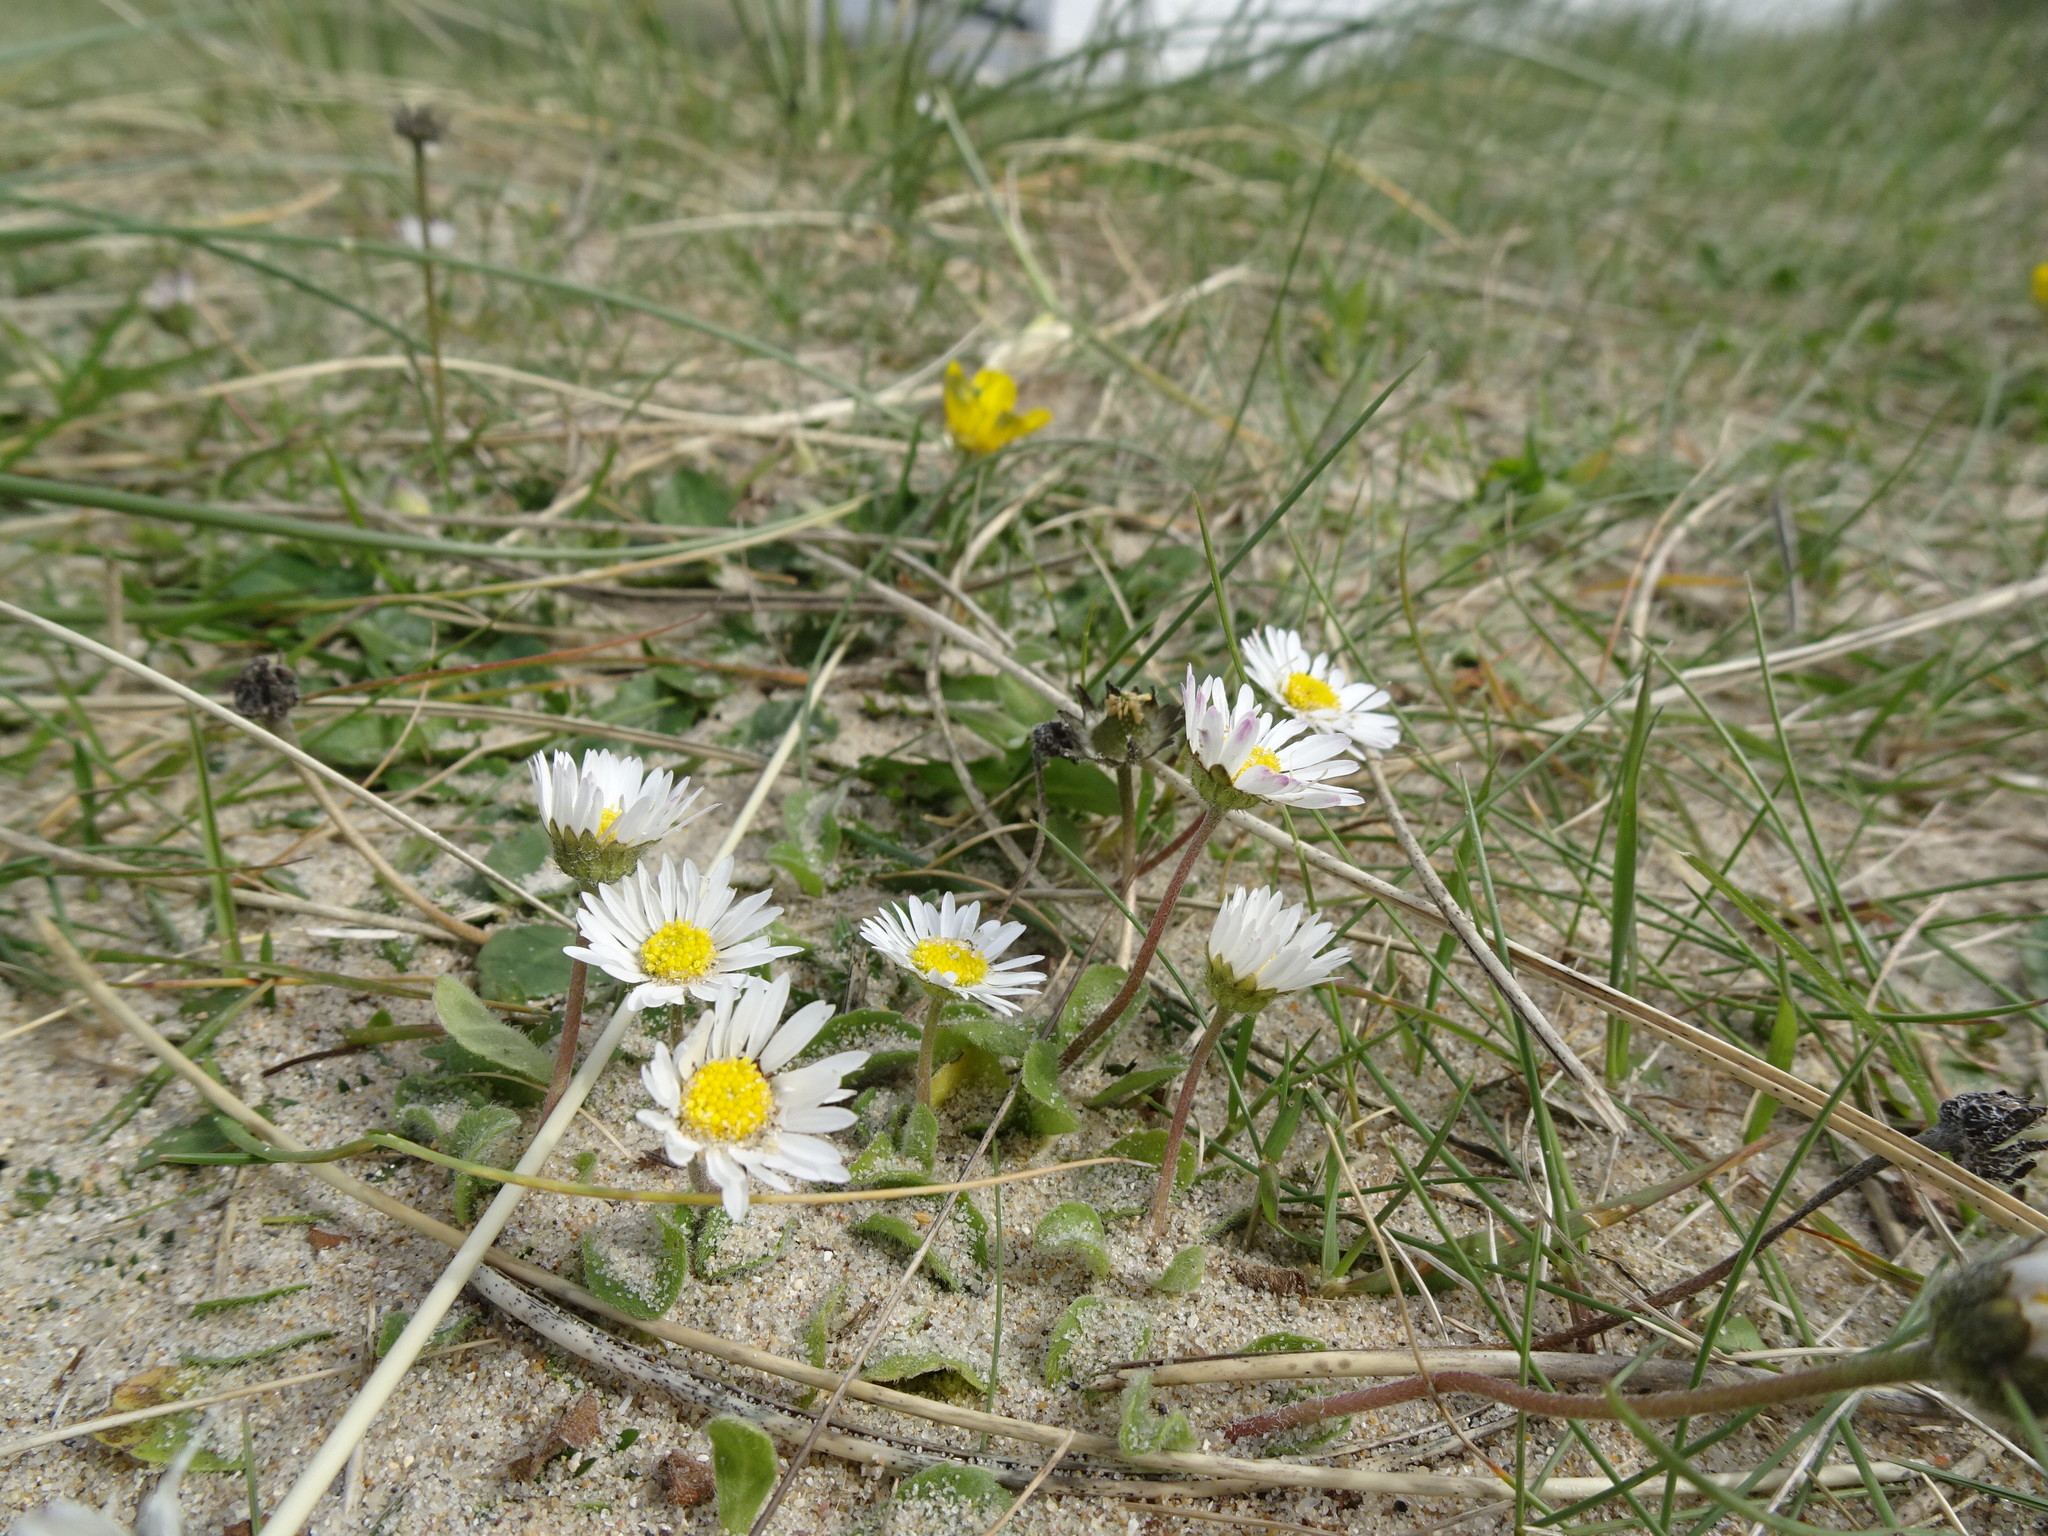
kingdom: Plantae
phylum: Tracheophyta
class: Magnoliopsida
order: Asterales
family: Asteraceae
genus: Bellis
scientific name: Bellis perennis
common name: Lawndaisy
